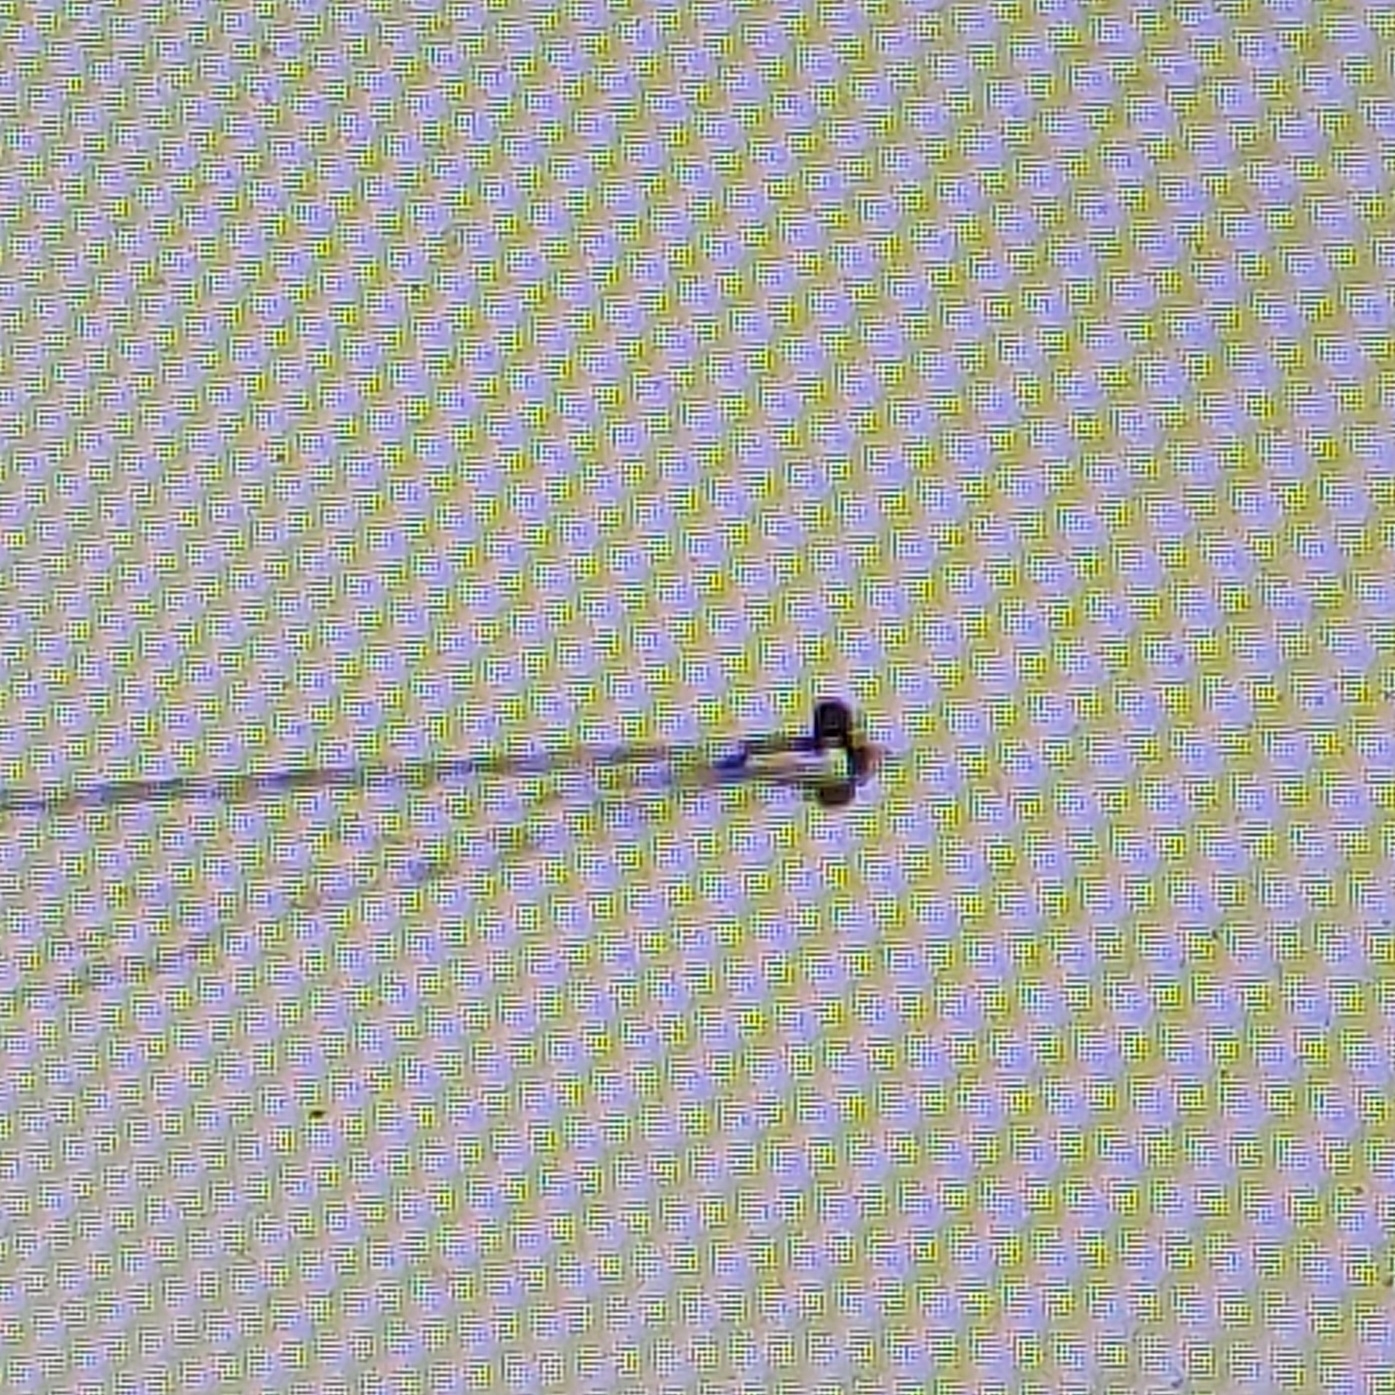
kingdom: Animalia
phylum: Chordata
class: Aves
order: Anseriformes
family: Anatidae
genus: Aythya
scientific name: Aythya collaris
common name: Ring-necked duck
